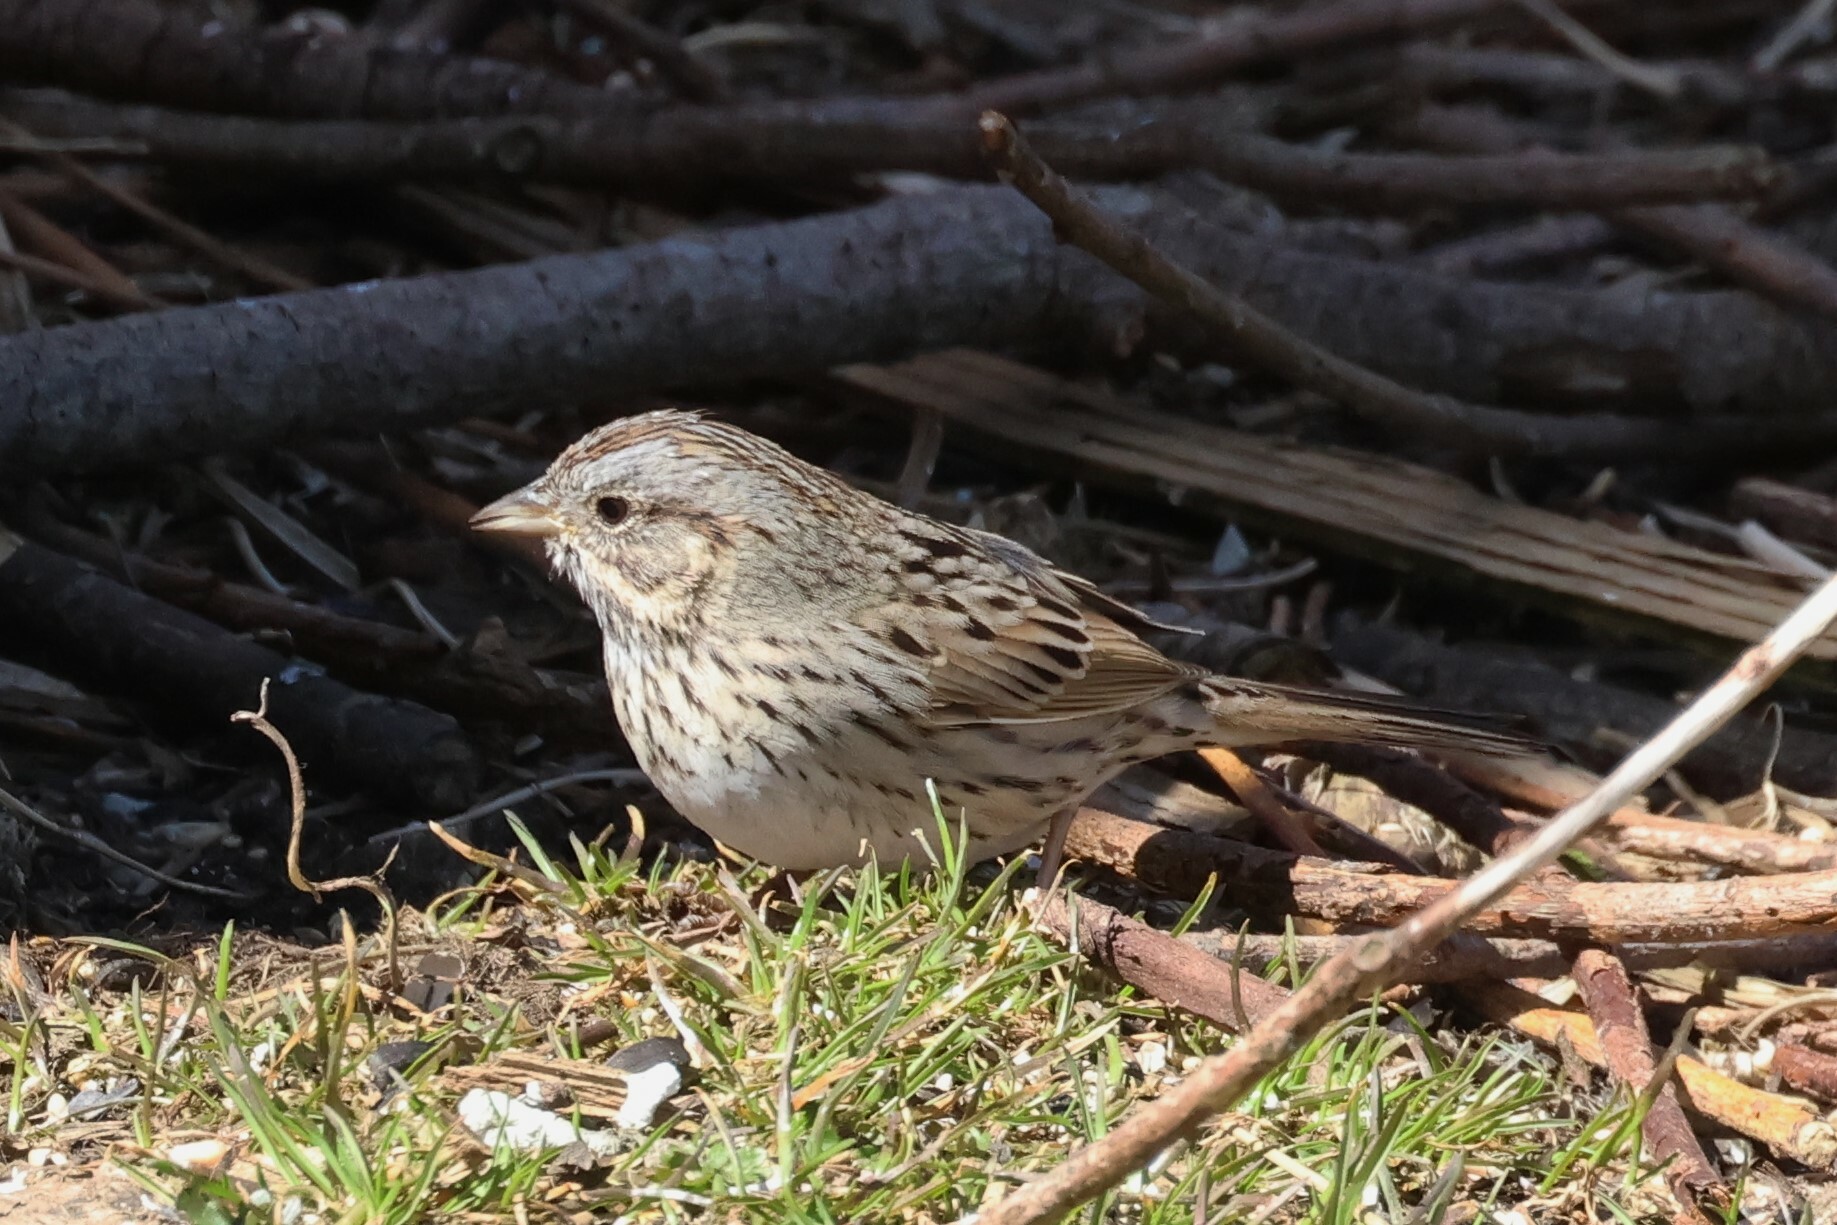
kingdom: Animalia
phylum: Chordata
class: Aves
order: Passeriformes
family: Passerellidae
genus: Melospiza
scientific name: Melospiza lincolnii
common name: Lincoln's sparrow
